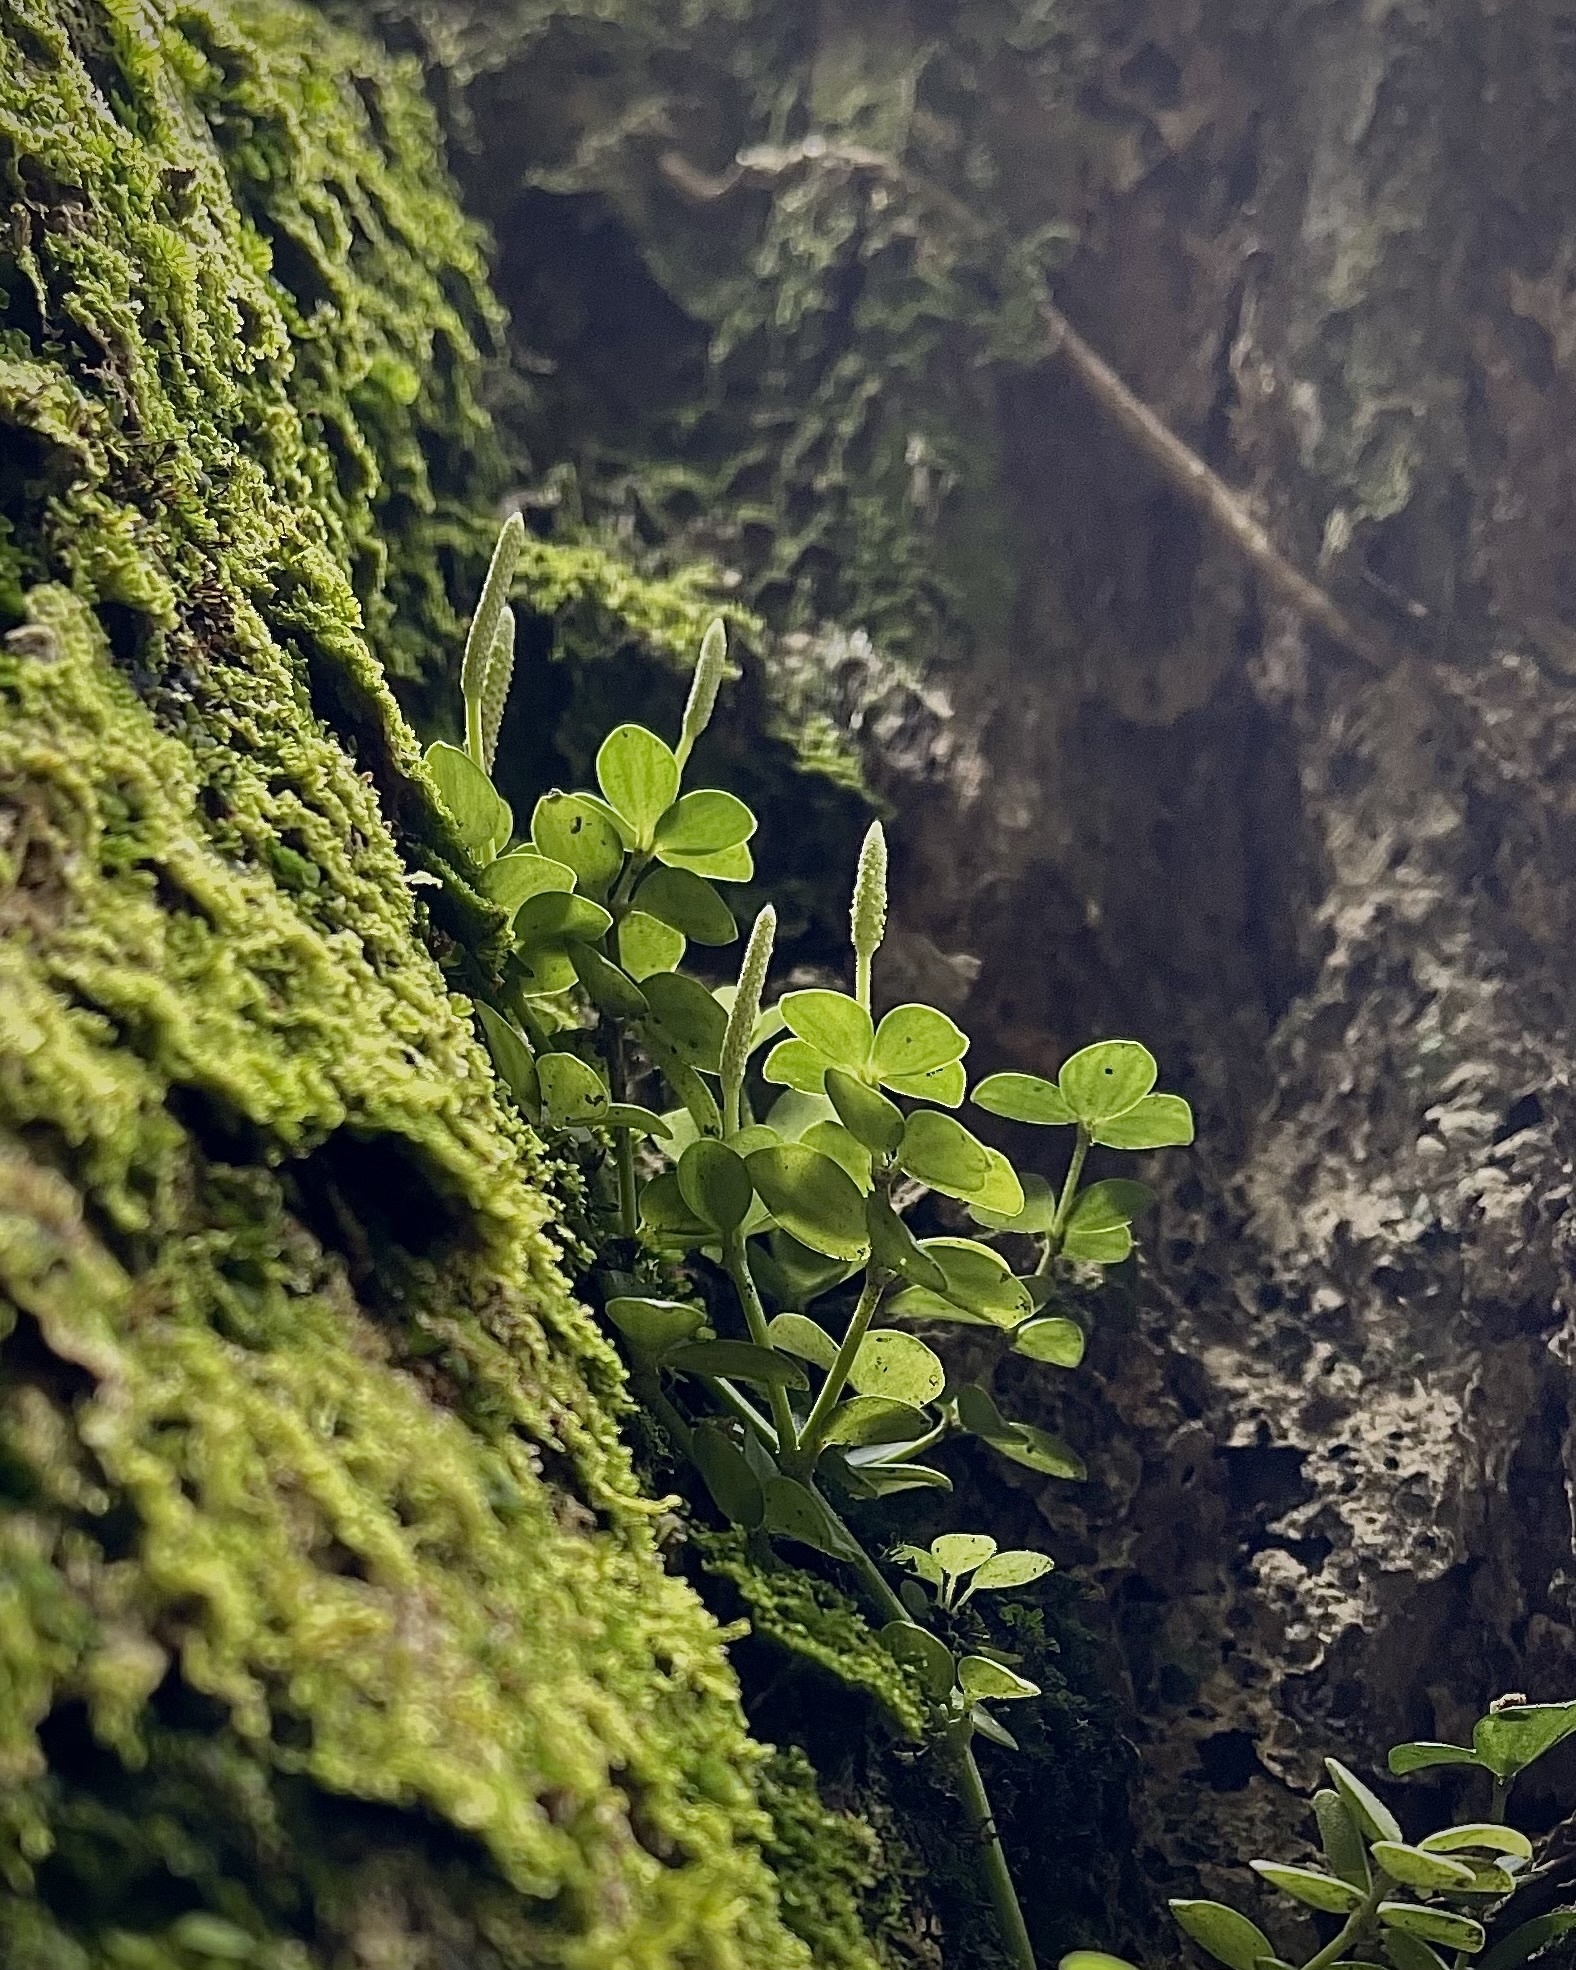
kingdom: Plantae
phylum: Tracheophyta
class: Magnoliopsida
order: Piperales
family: Piperaceae
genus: Peperomia
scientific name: Peperomia tetraphylla
